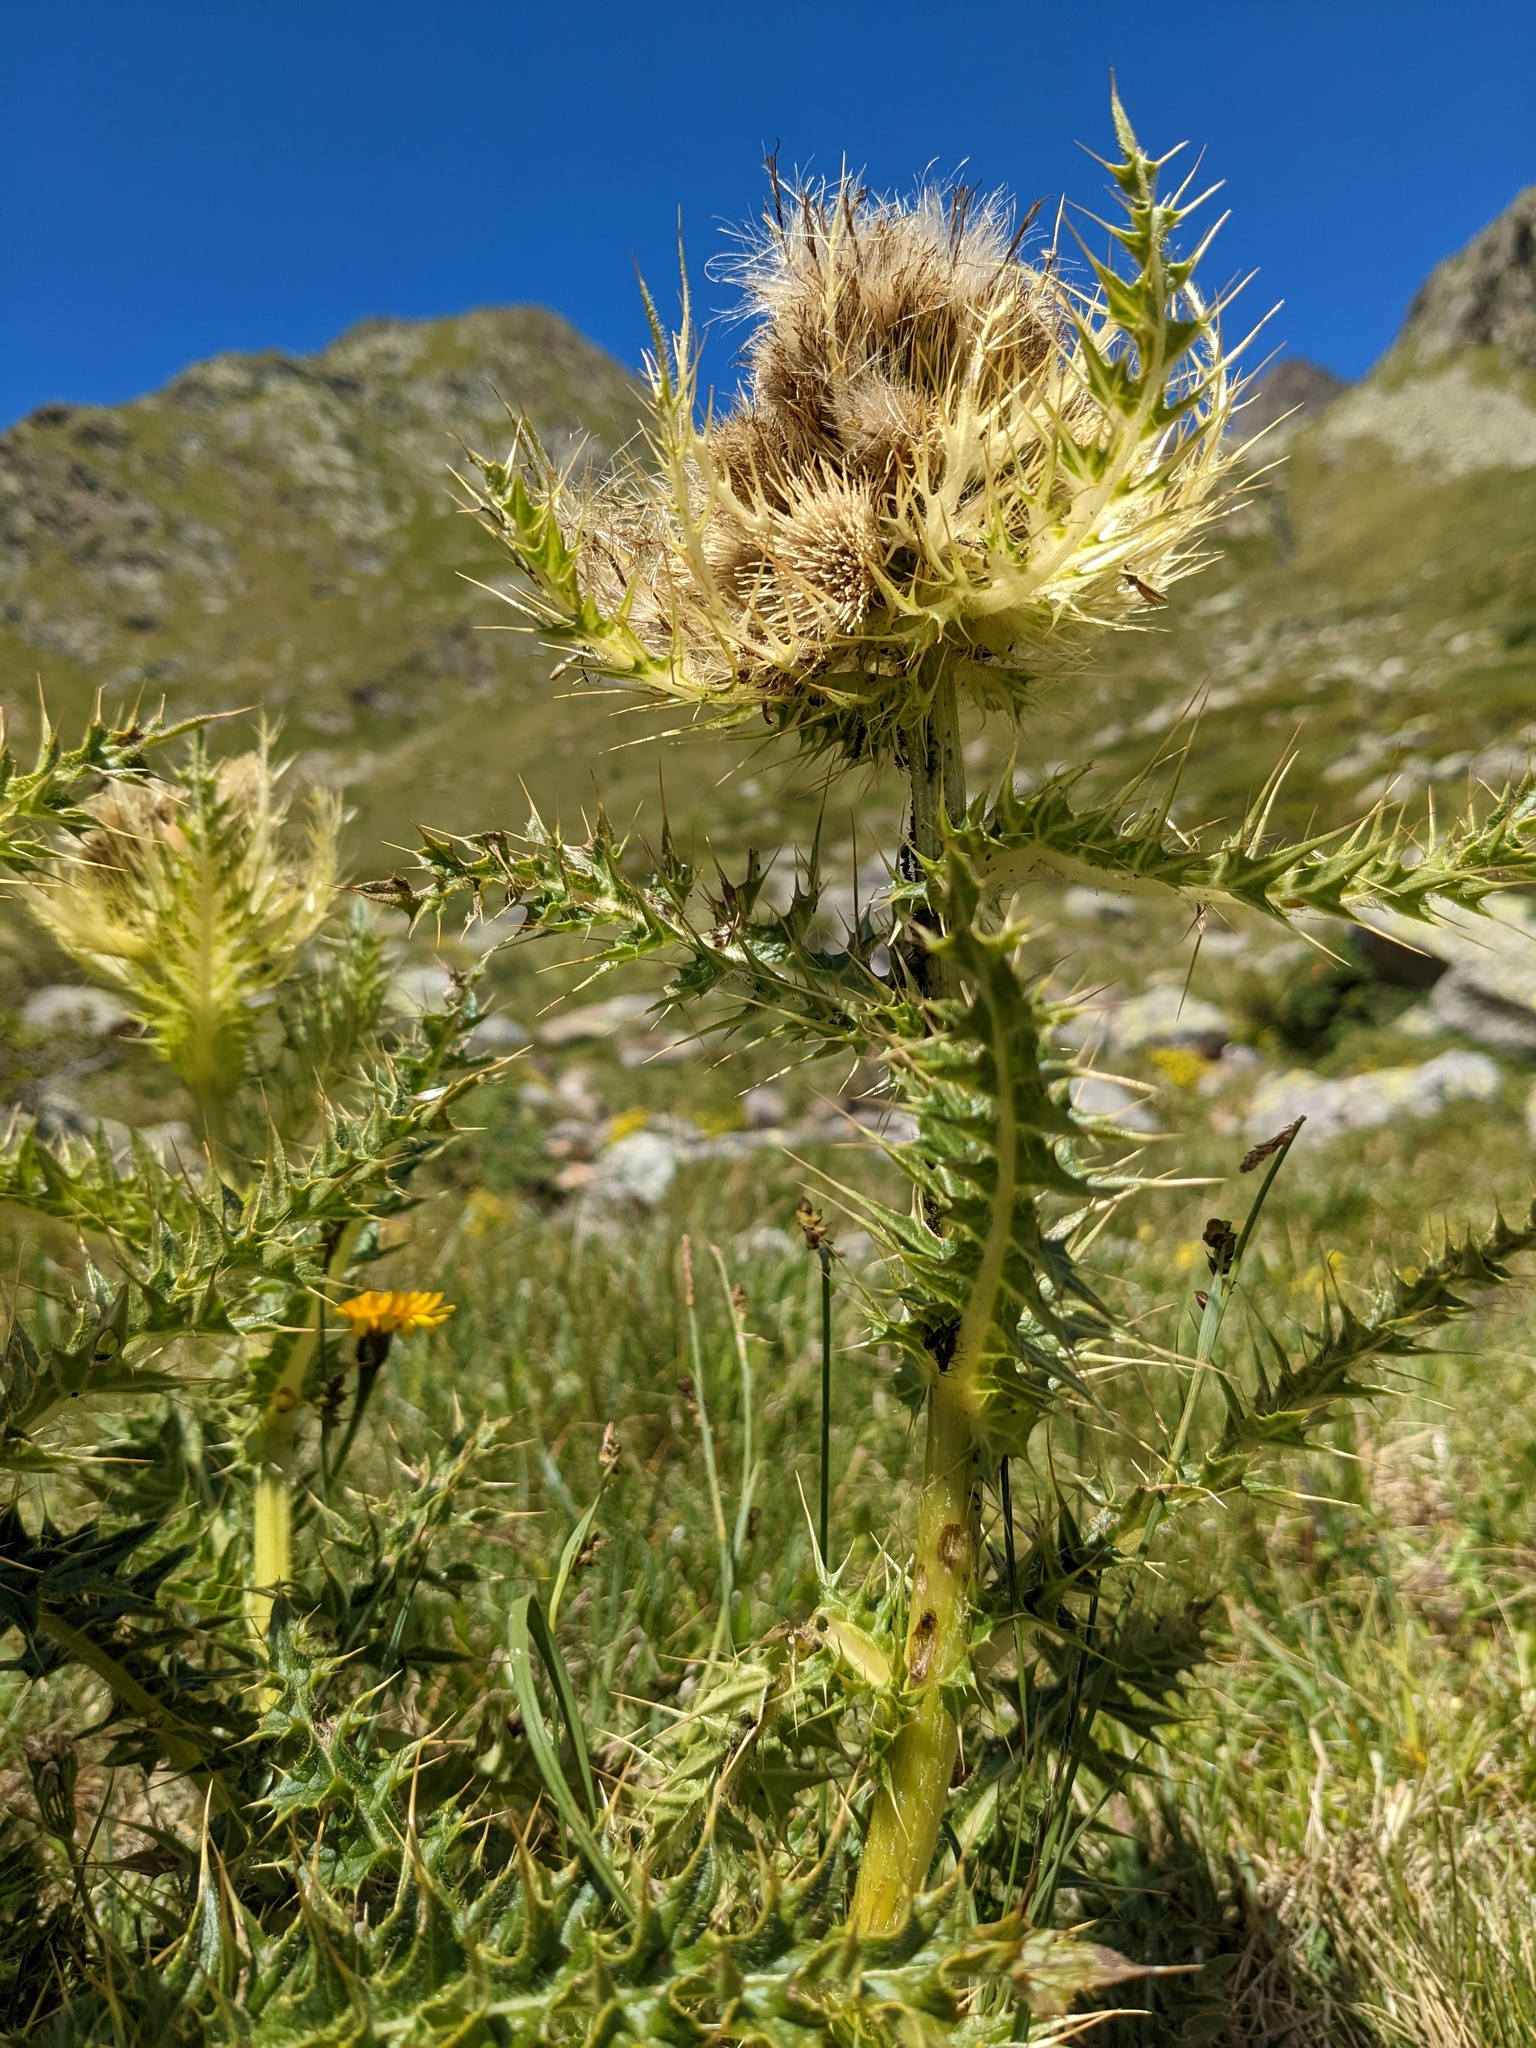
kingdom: Plantae
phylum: Tracheophyta
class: Magnoliopsida
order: Asterales
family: Asteraceae
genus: Cirsium
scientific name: Cirsium spinosissimum
